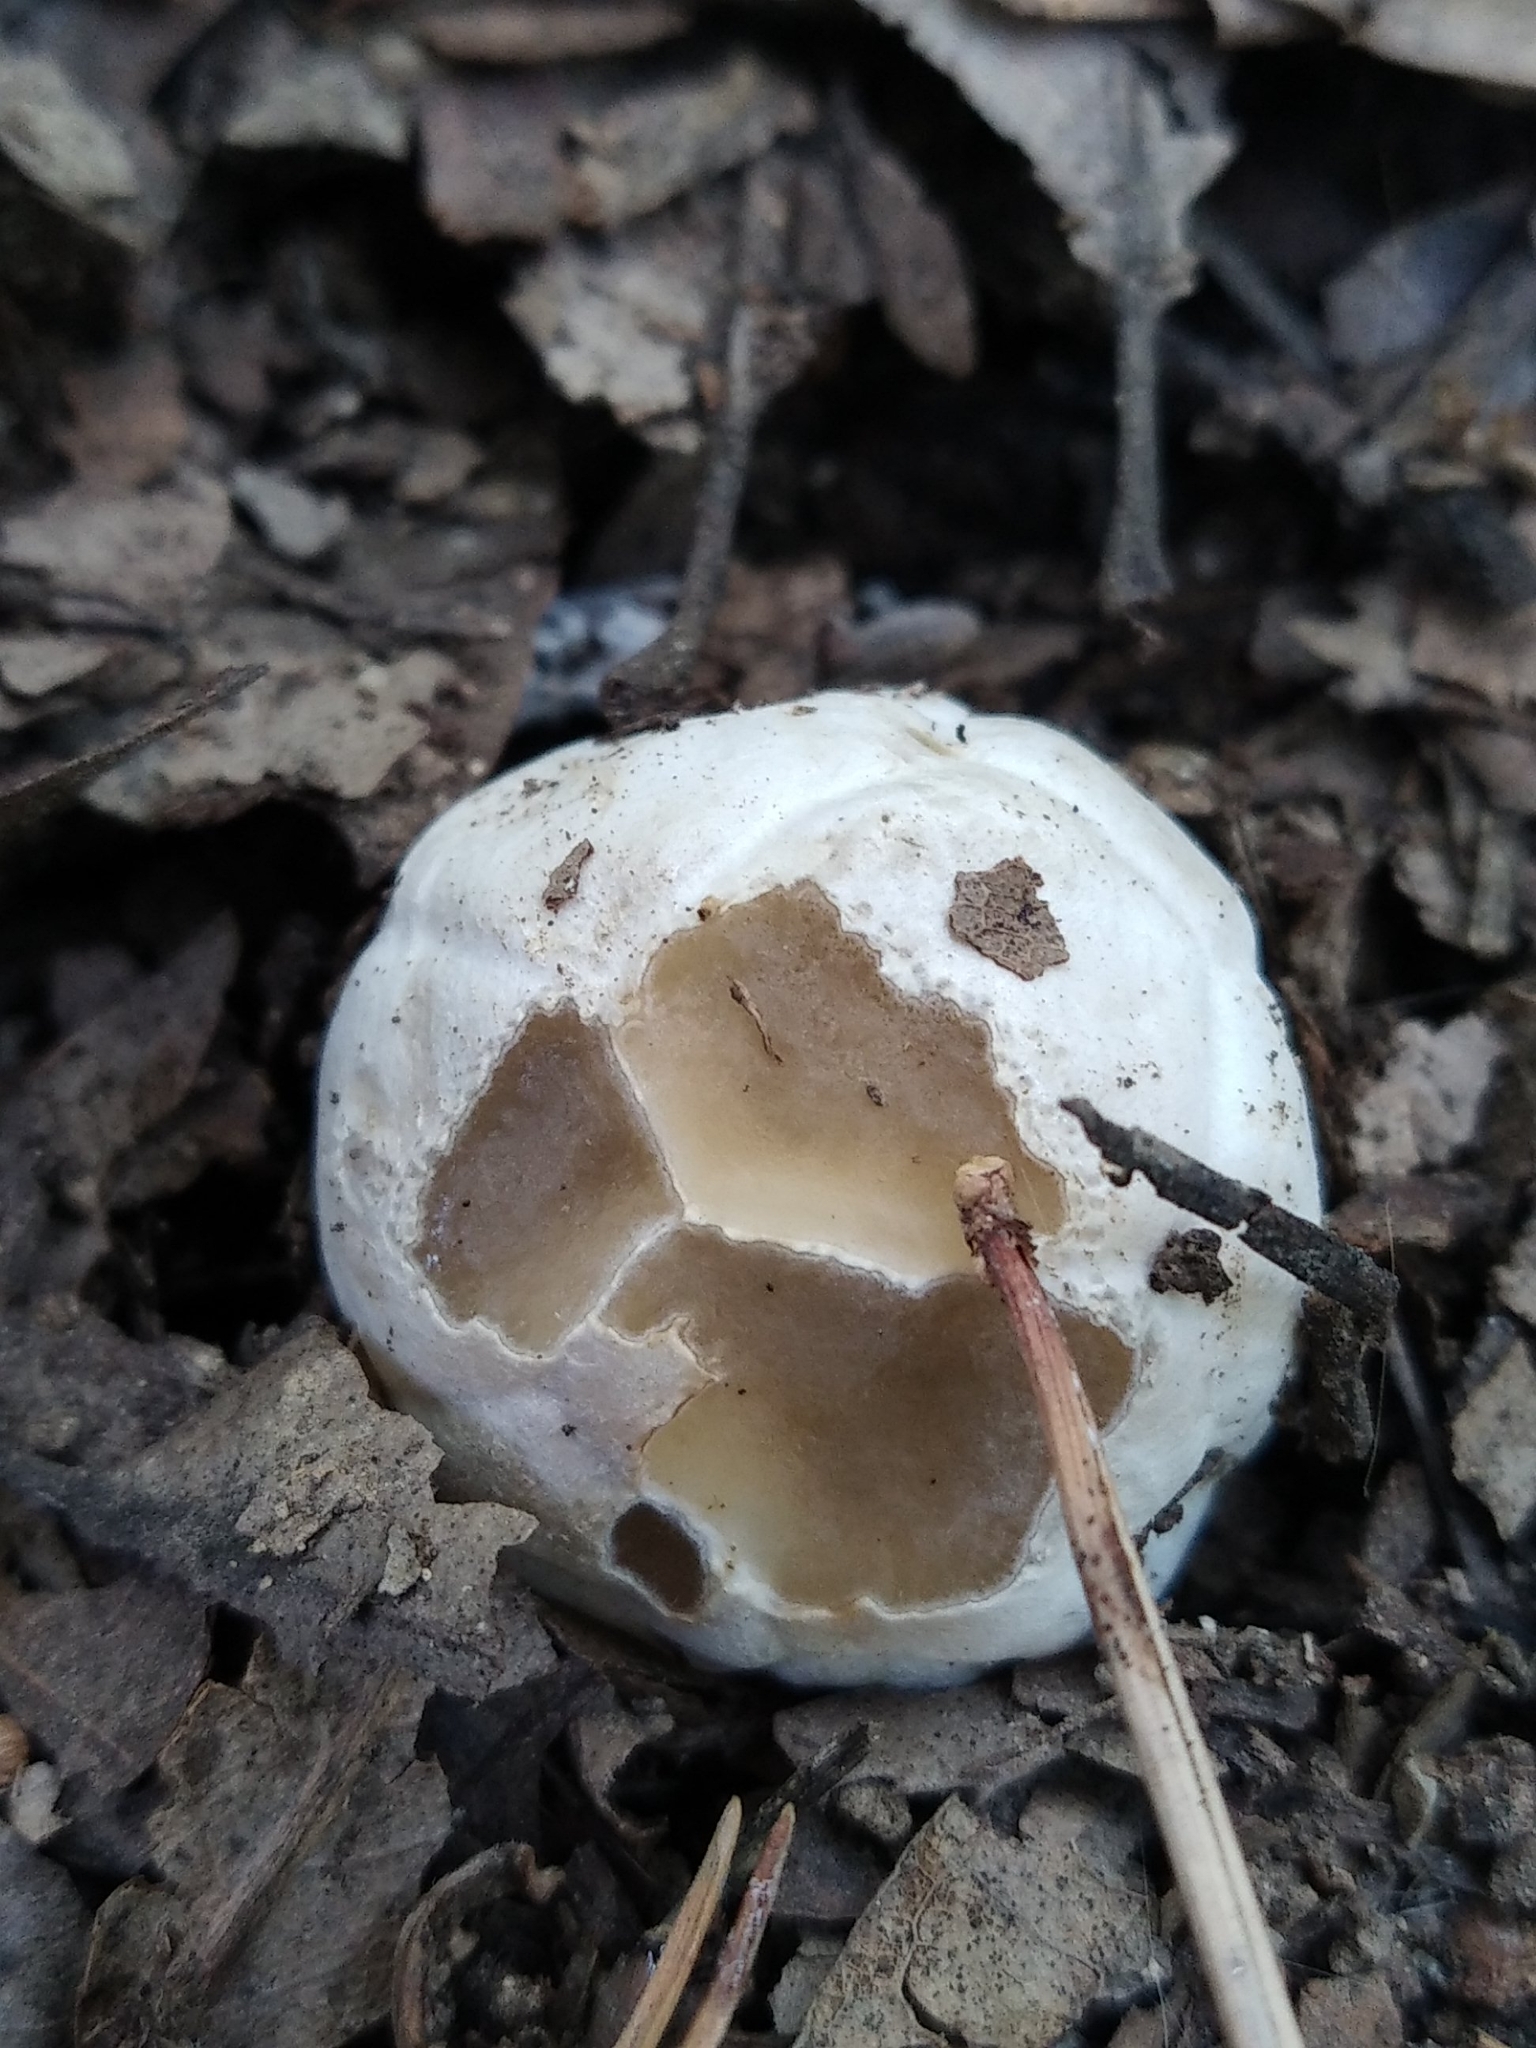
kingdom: Fungi
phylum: Basidiomycota
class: Agaricomycetes
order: Phallales
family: Phallaceae
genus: Clathrus
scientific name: Clathrus ruber
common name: Red cage
